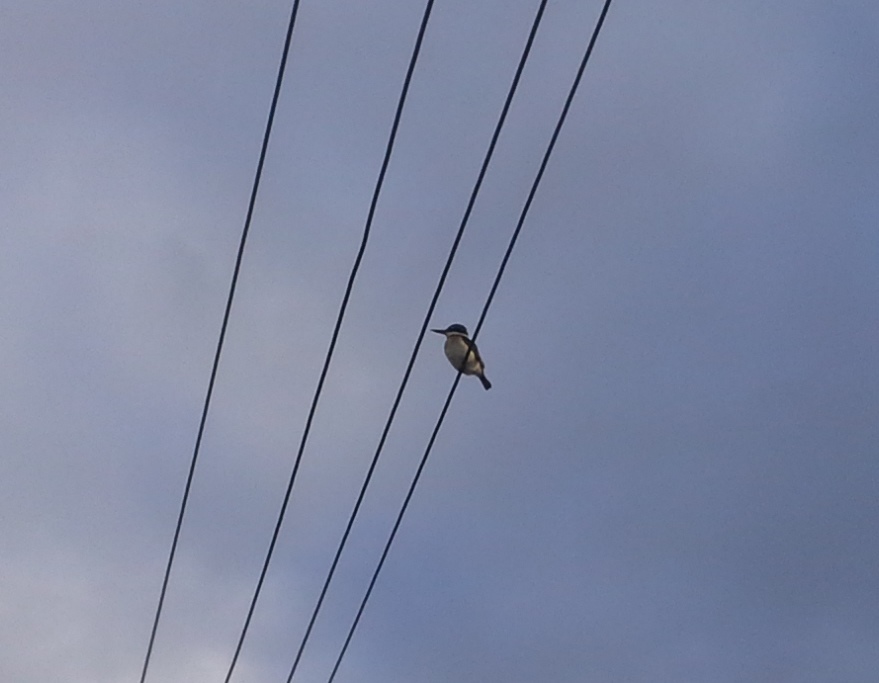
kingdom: Animalia
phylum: Chordata
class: Aves
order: Coraciiformes
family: Alcedinidae
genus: Todiramphus
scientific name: Todiramphus sanctus
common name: Sacred kingfisher
